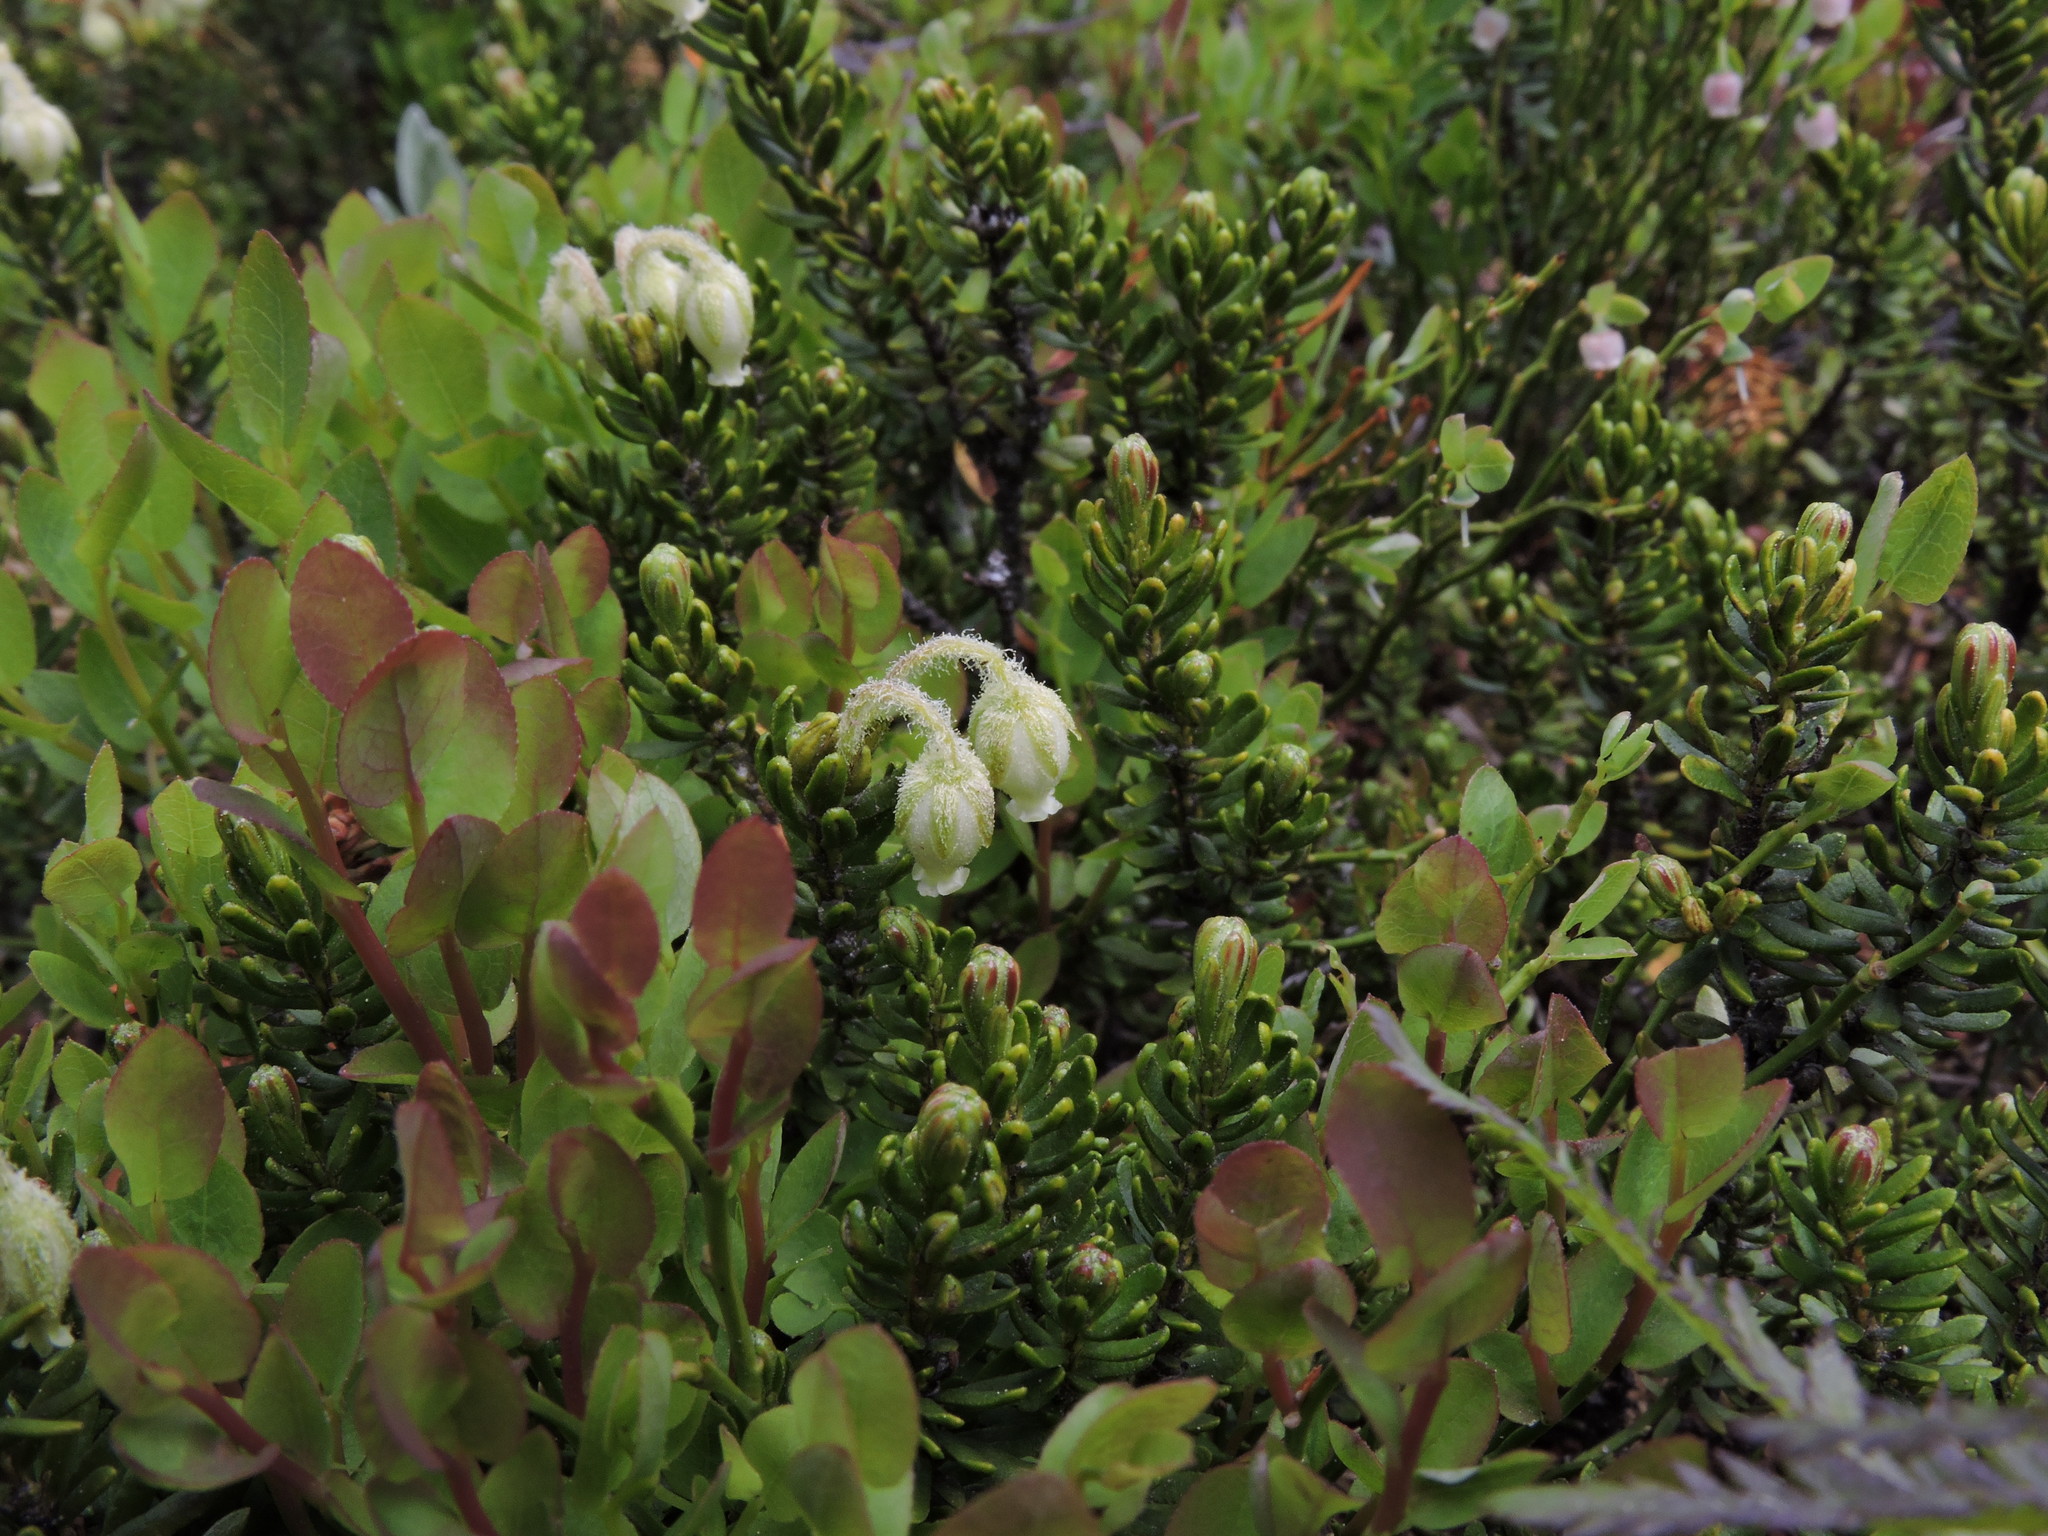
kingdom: Plantae
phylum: Tracheophyta
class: Magnoliopsida
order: Ericales
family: Ericaceae
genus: Phyllodoce
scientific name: Phyllodoce glanduliflora
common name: Cream mountain heather
